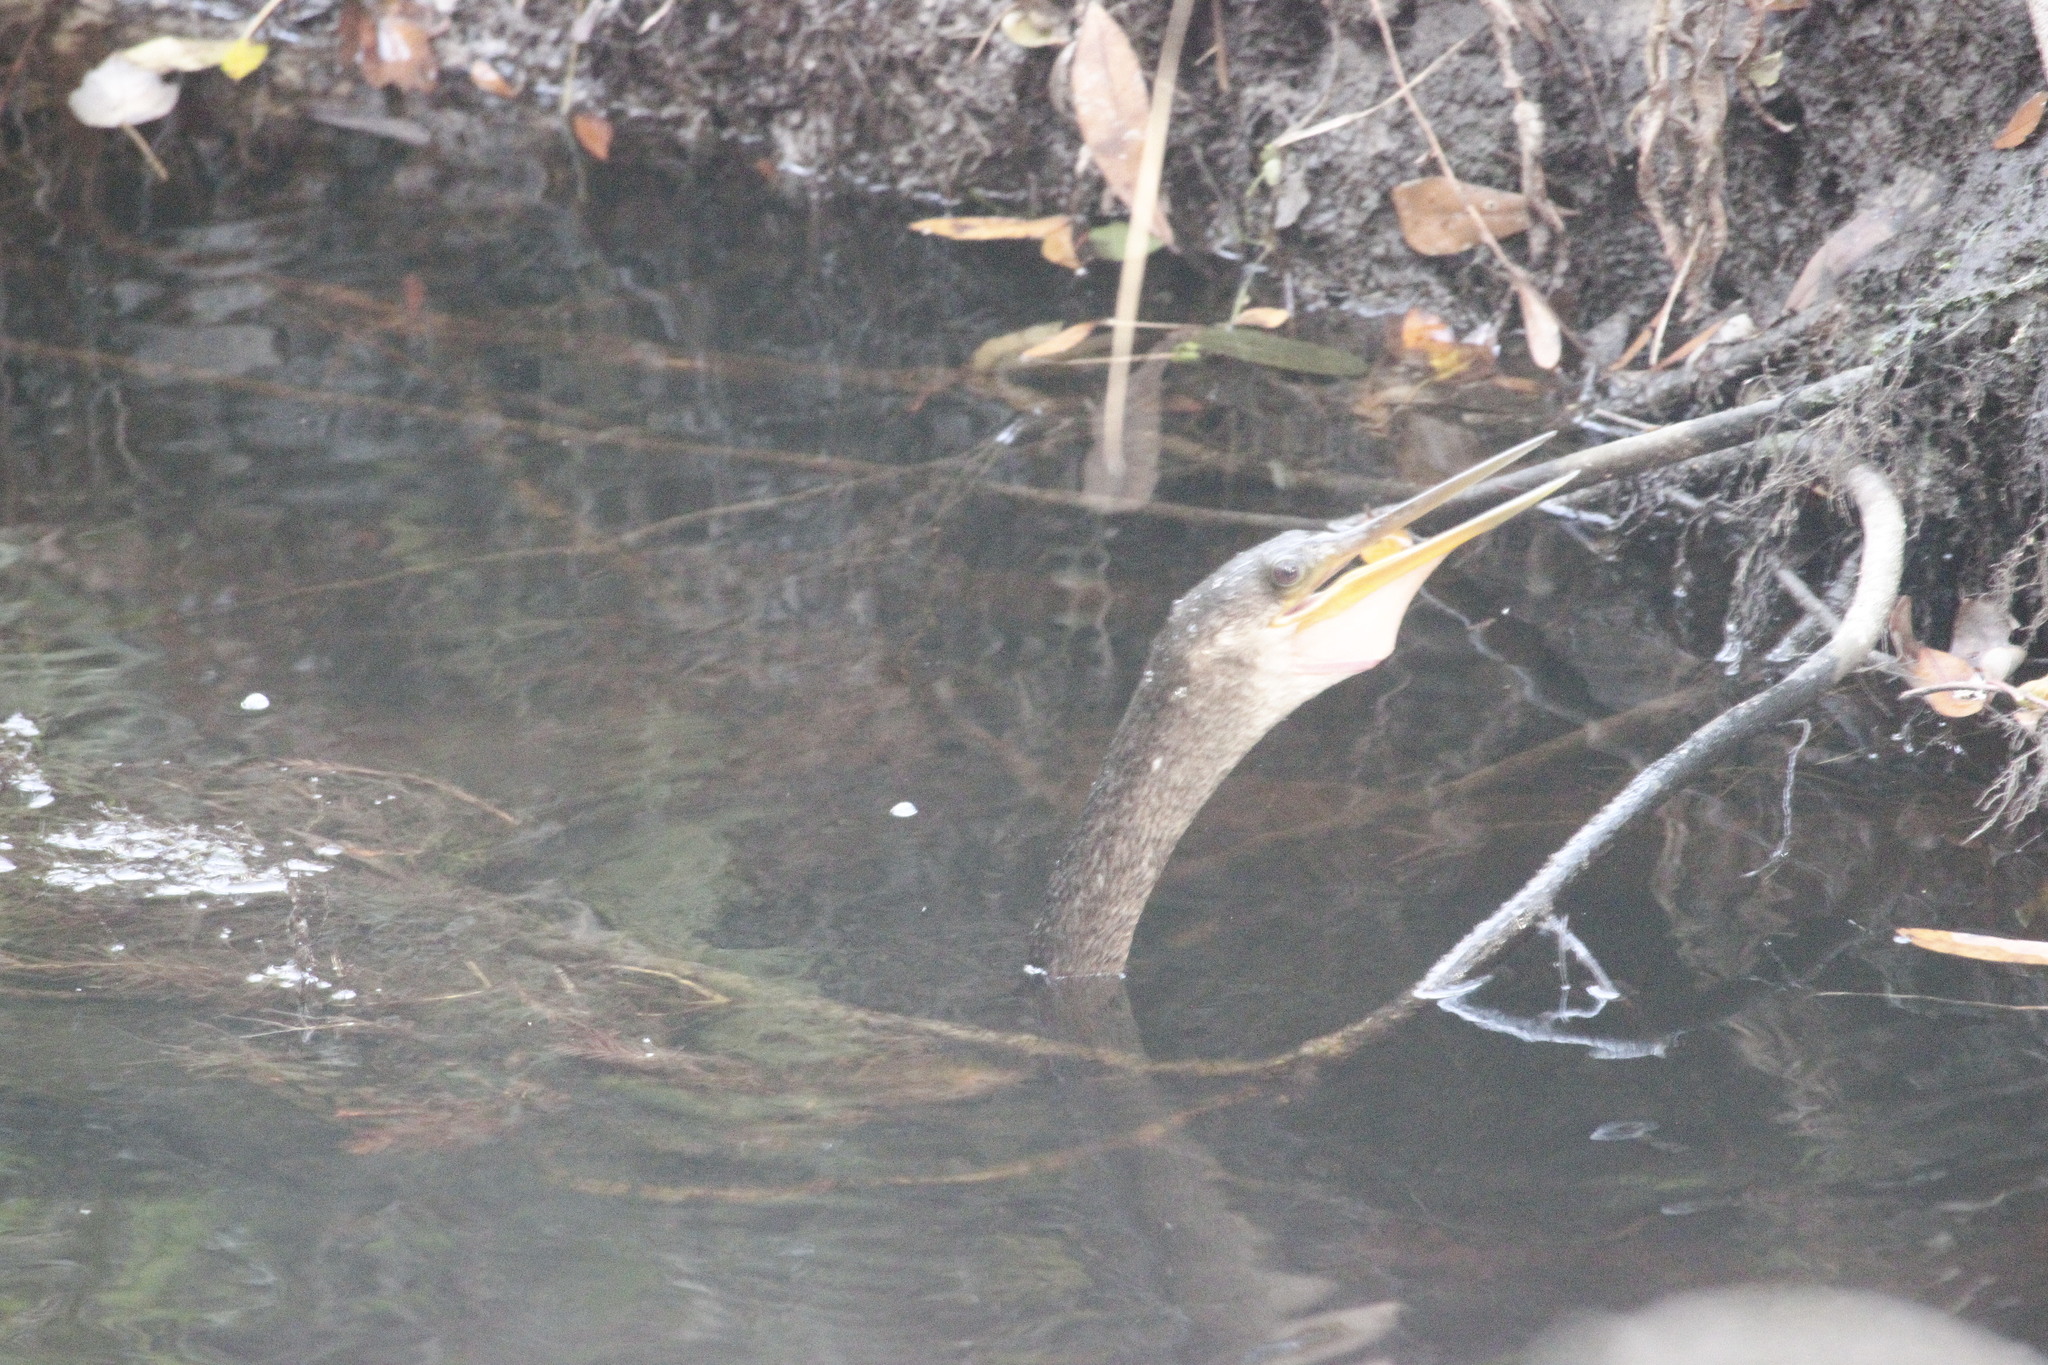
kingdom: Animalia
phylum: Chordata
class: Aves
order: Suliformes
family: Anhingidae
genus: Anhinga
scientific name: Anhinga anhinga
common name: Anhinga
